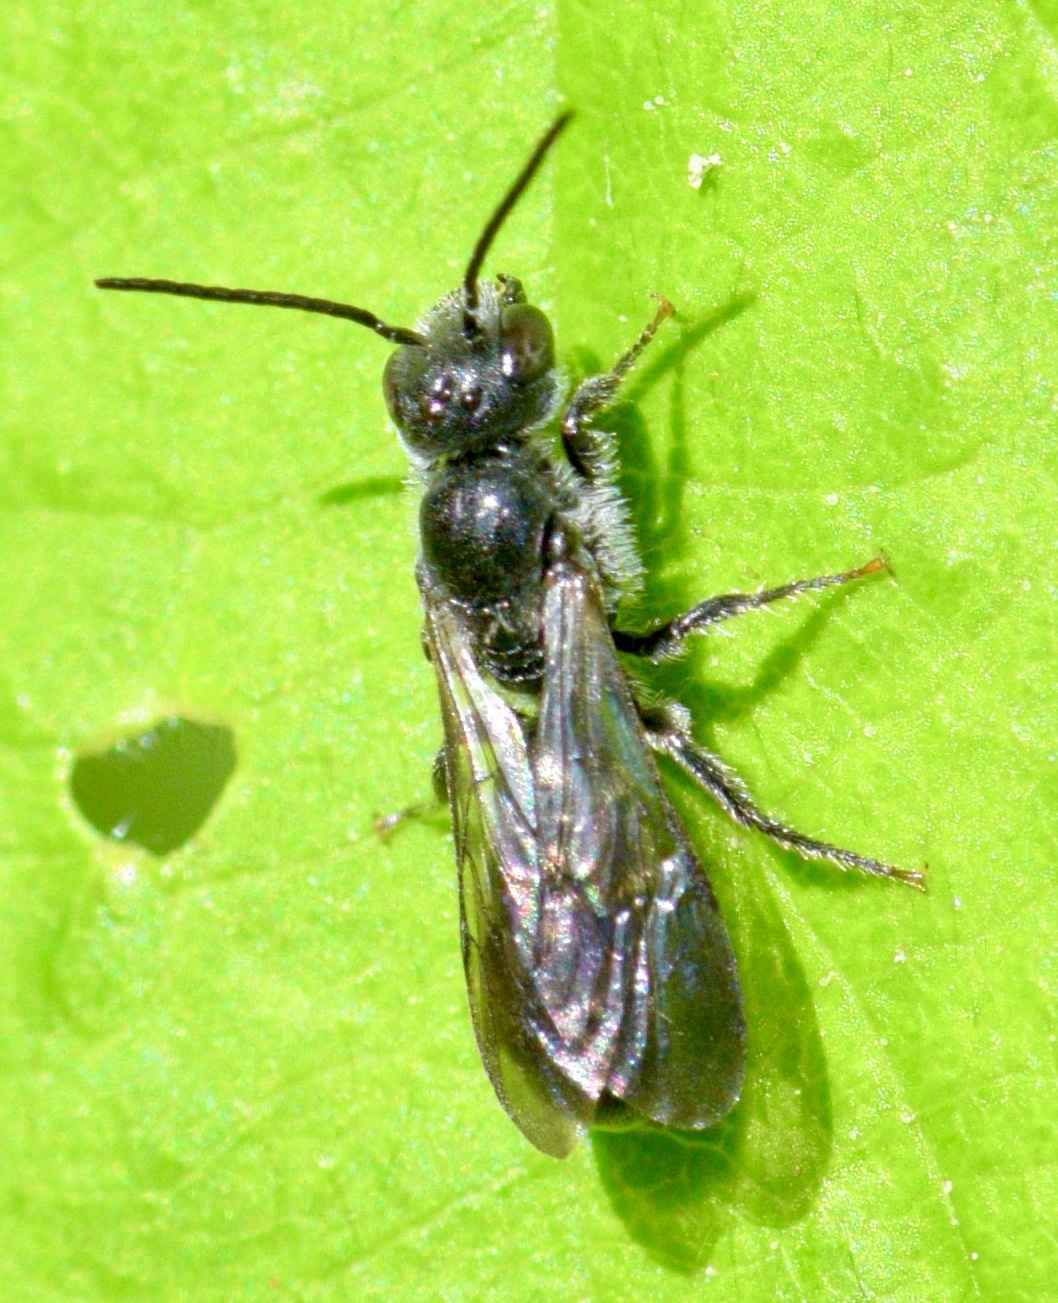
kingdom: Animalia
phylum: Arthropoda
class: Insecta
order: Hymenoptera
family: Megachilidae
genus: Chelostoma
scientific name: Chelostoma philadelphi
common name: Mock-orange scissor bee
